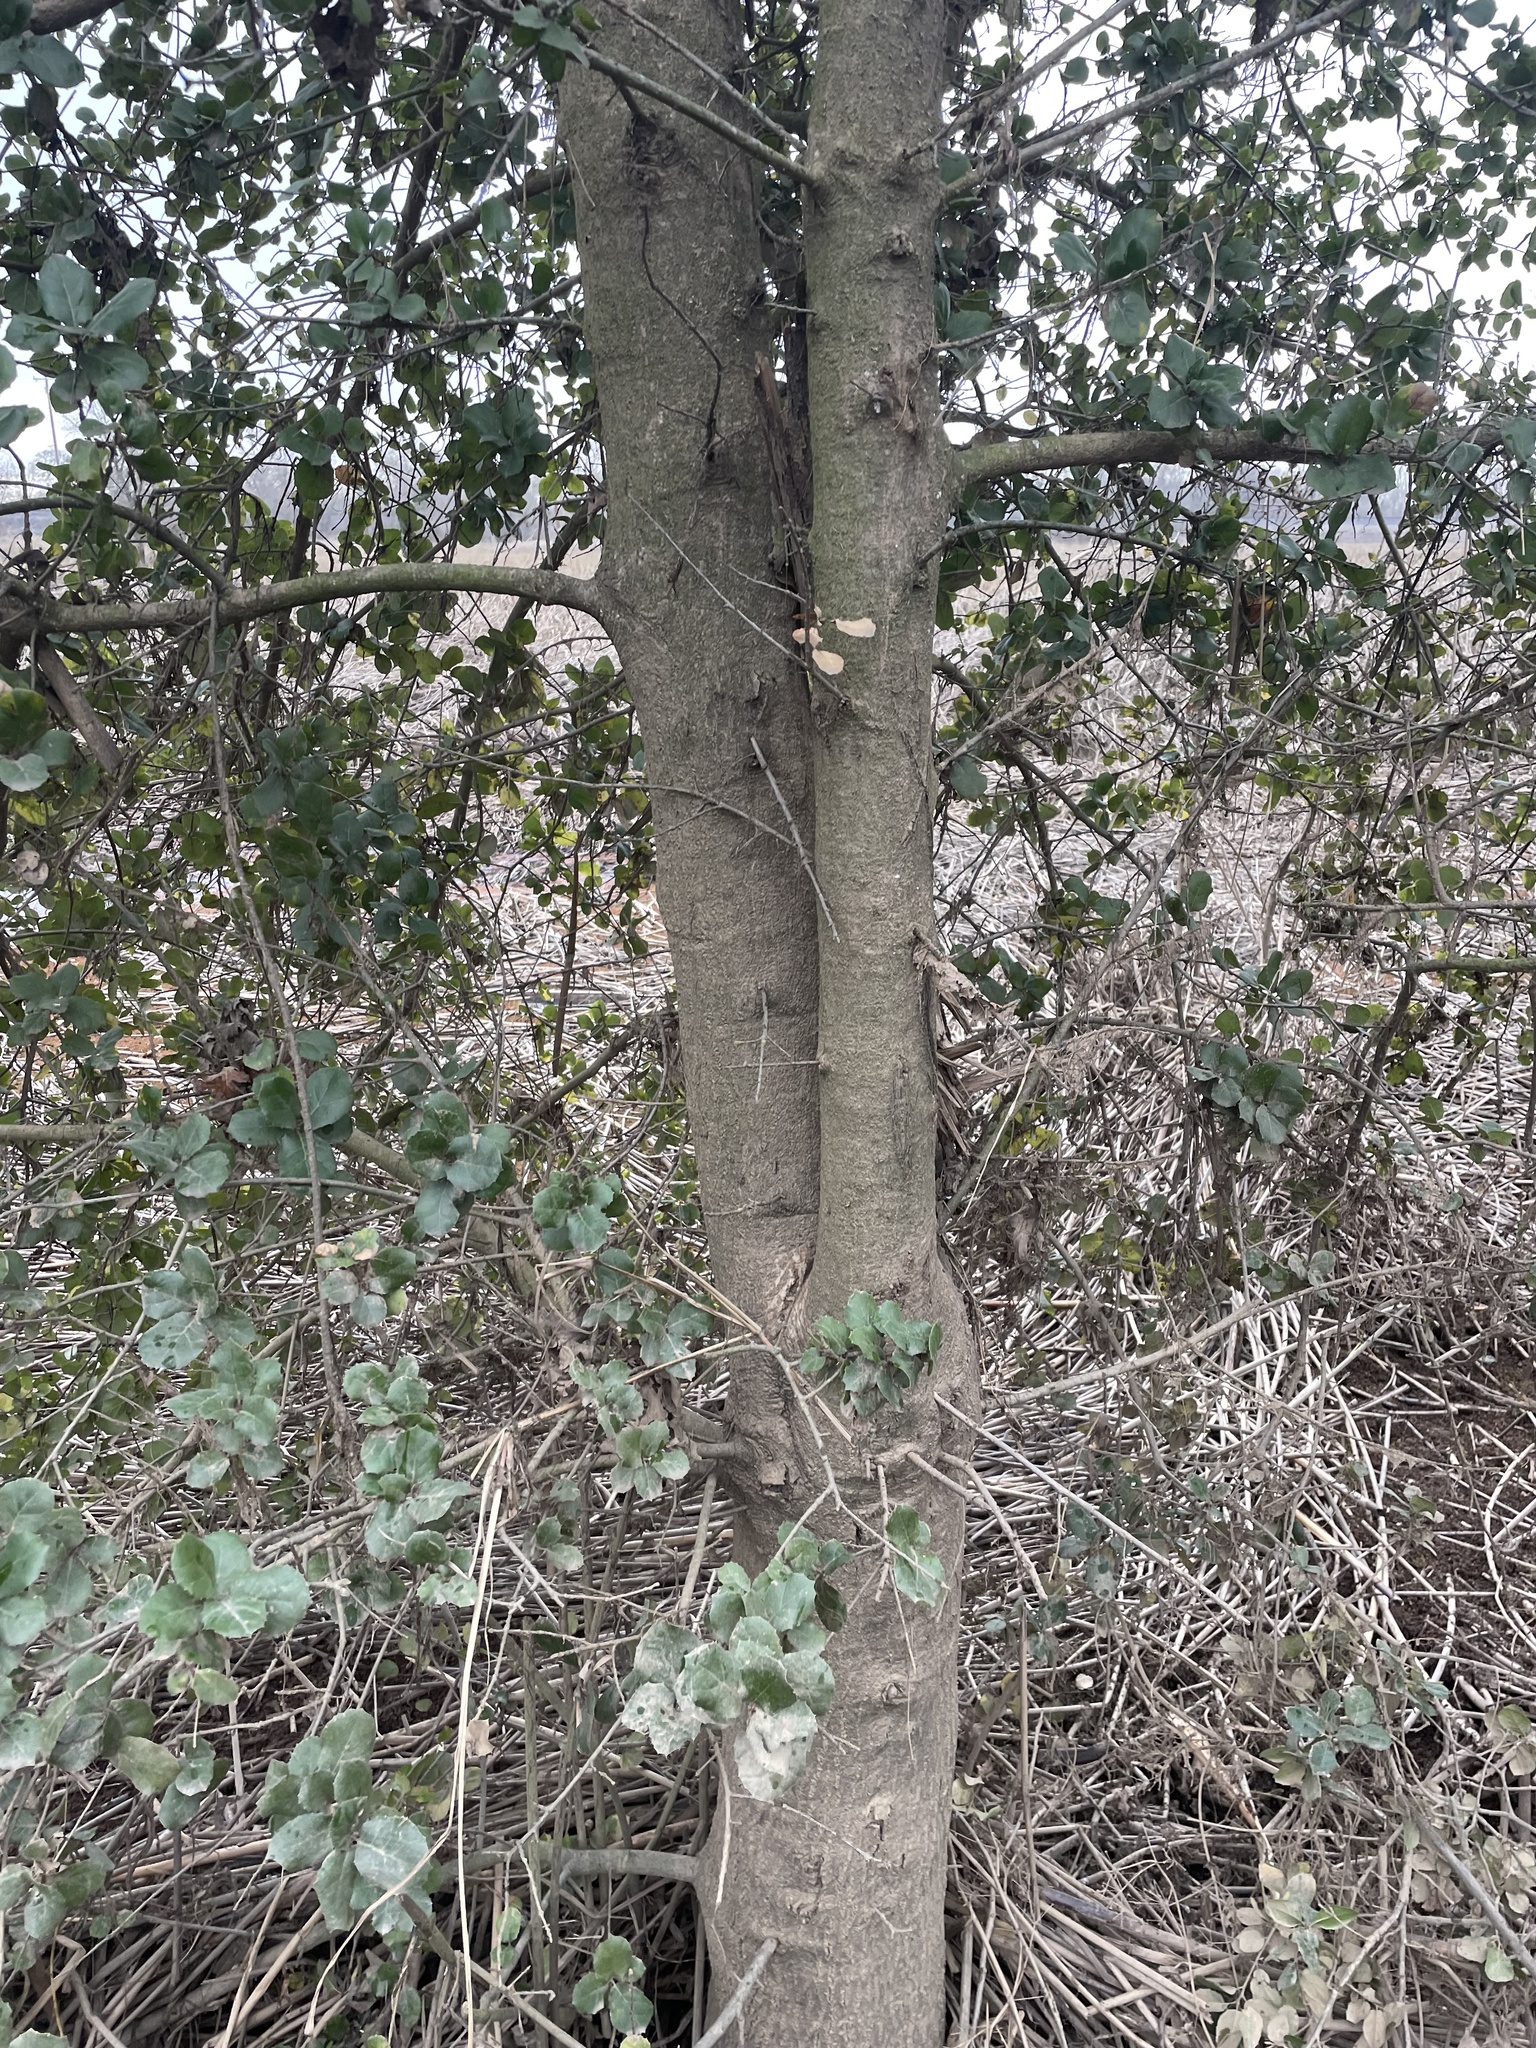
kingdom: Plantae
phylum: Tracheophyta
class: Magnoliopsida
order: Fagales
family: Fagaceae
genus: Quercus
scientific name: Quercus agrifolia
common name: California live oak
